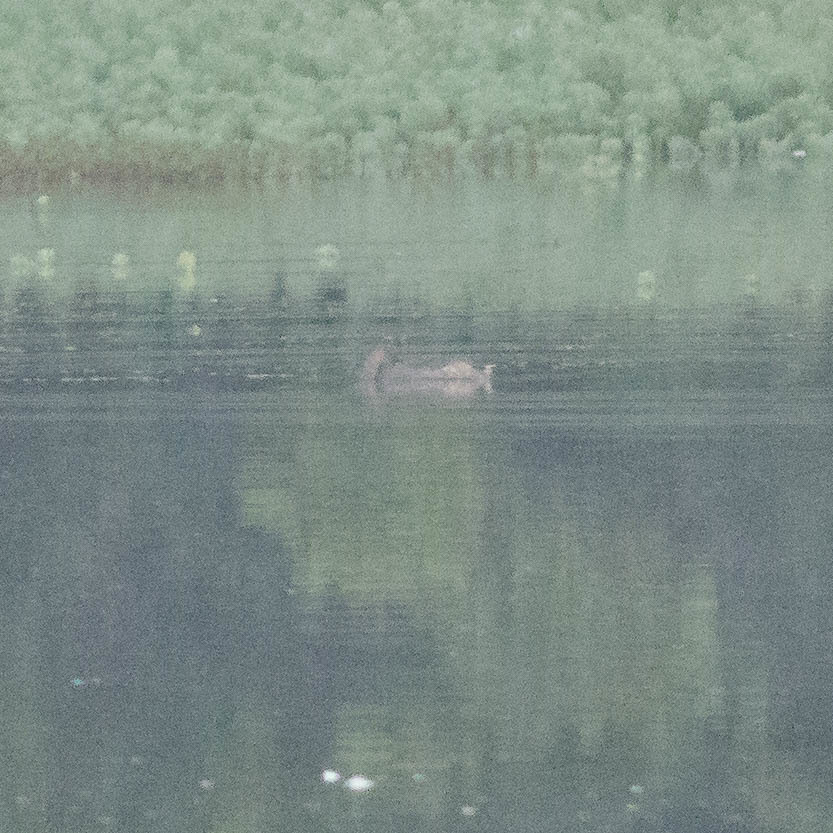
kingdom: Animalia
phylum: Chordata
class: Aves
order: Podicipediformes
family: Podicipedidae
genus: Podilymbus
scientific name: Podilymbus podiceps
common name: Pied-billed grebe
